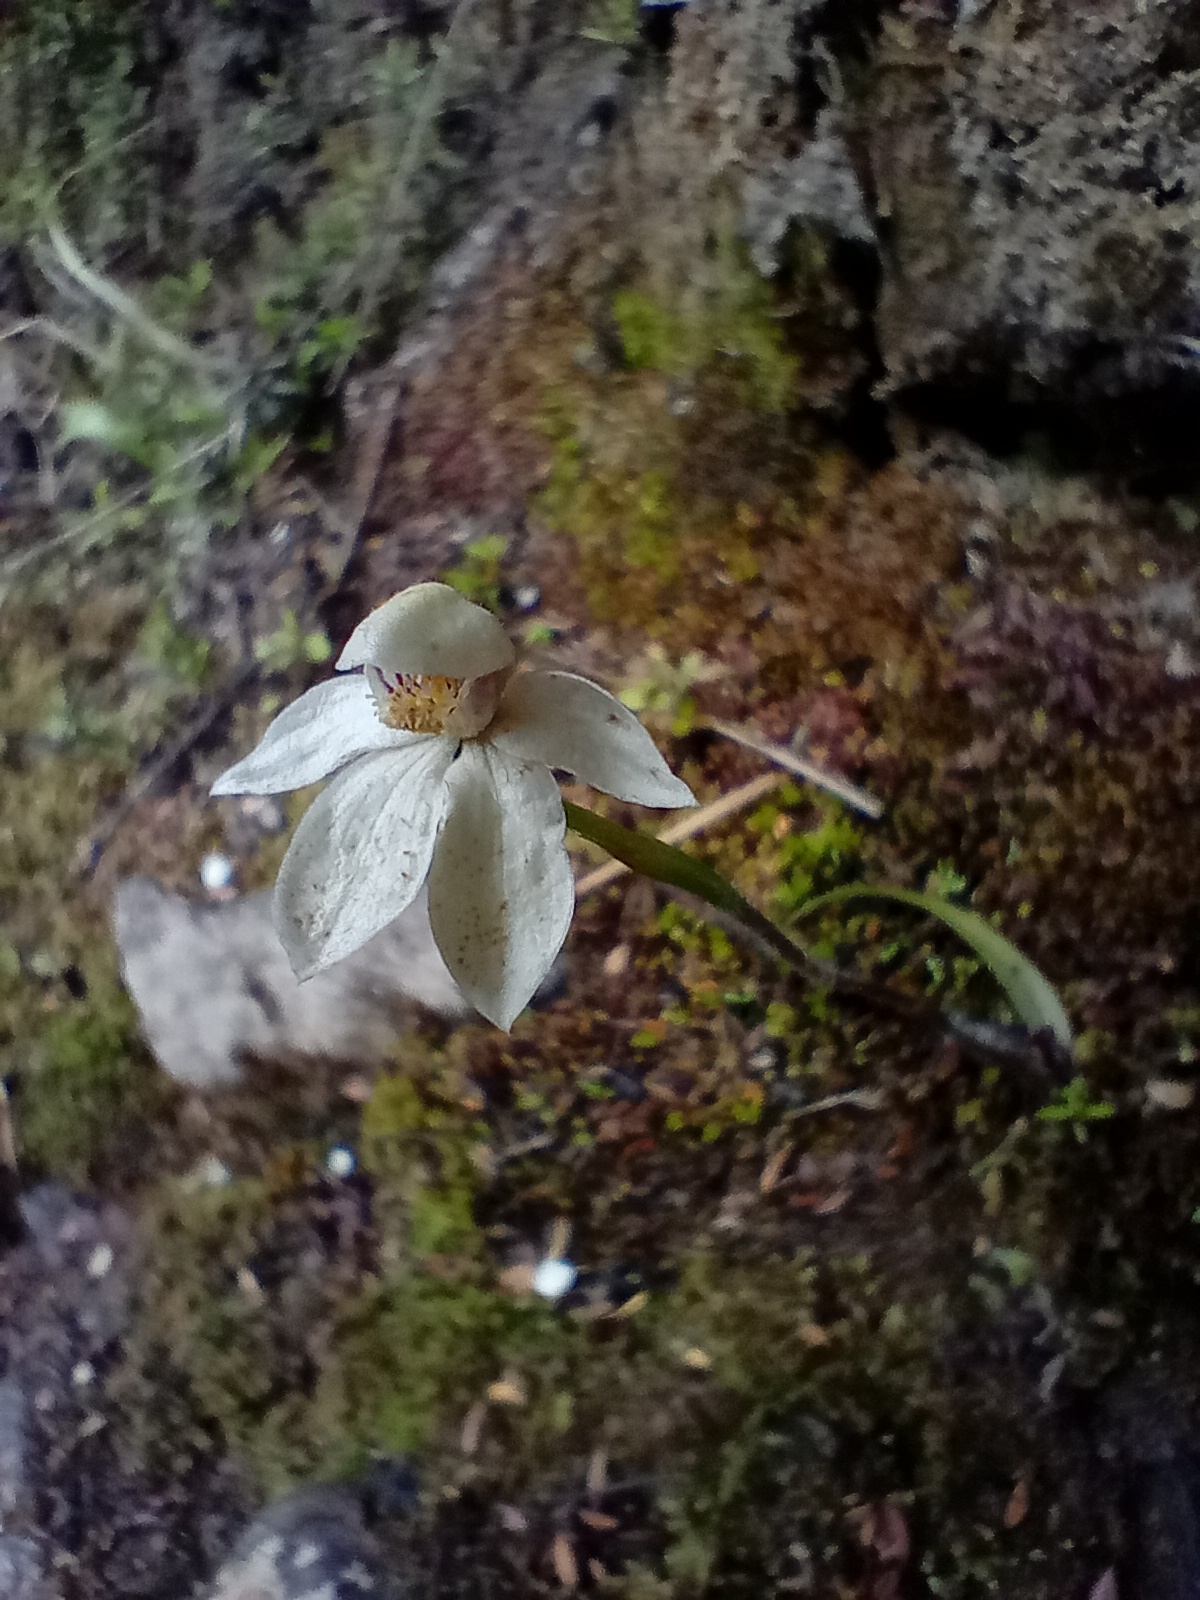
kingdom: Plantae
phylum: Tracheophyta
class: Liliopsida
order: Asparagales
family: Orchidaceae
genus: Caladenia
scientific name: Caladenia lyallii
